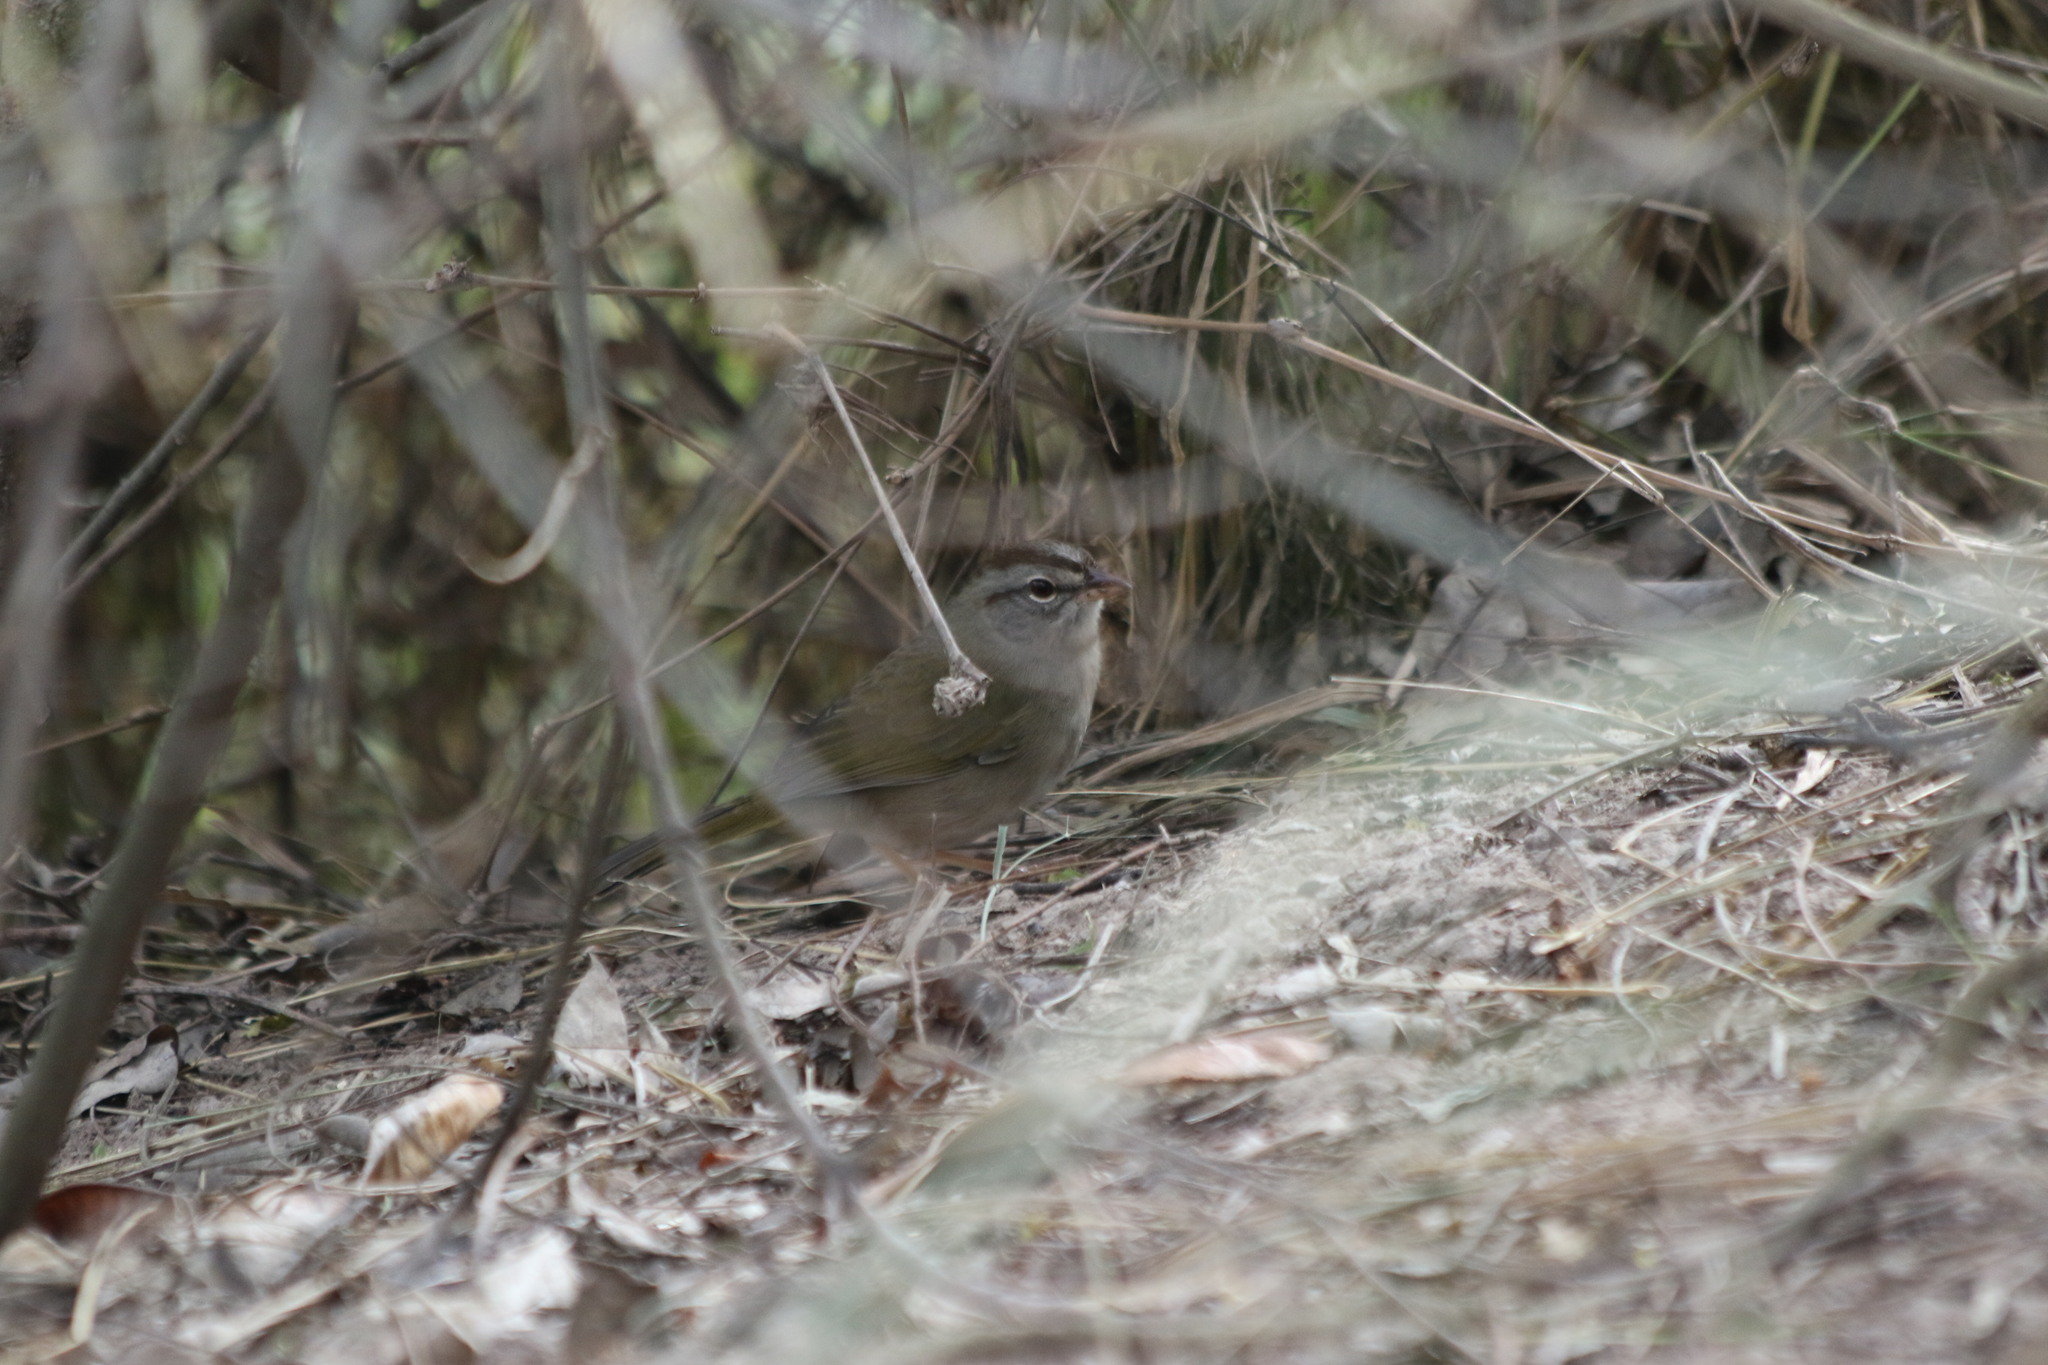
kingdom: Animalia
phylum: Chordata
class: Aves
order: Passeriformes
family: Passerellidae
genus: Arremonops
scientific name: Arremonops rufivirgatus
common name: Olive sparrow
